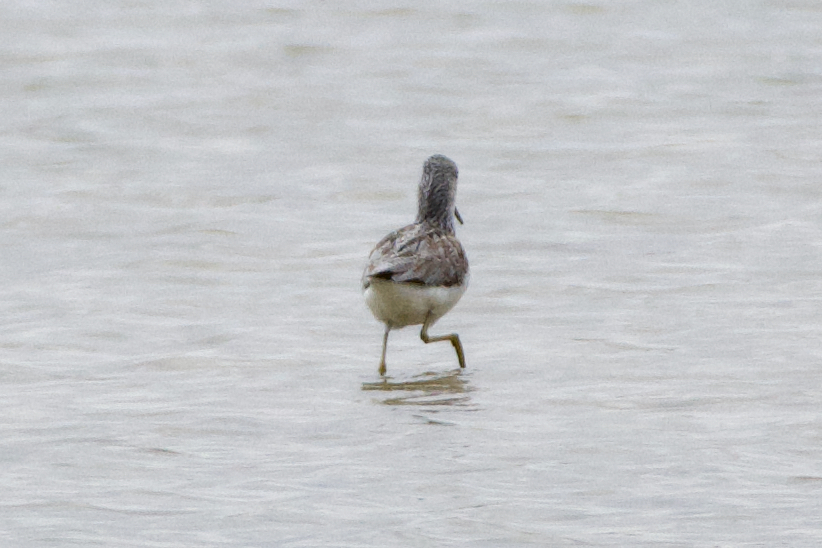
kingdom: Animalia
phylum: Chordata
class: Aves
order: Charadriiformes
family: Scolopacidae
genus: Tringa
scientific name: Tringa nebularia
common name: Common greenshank
